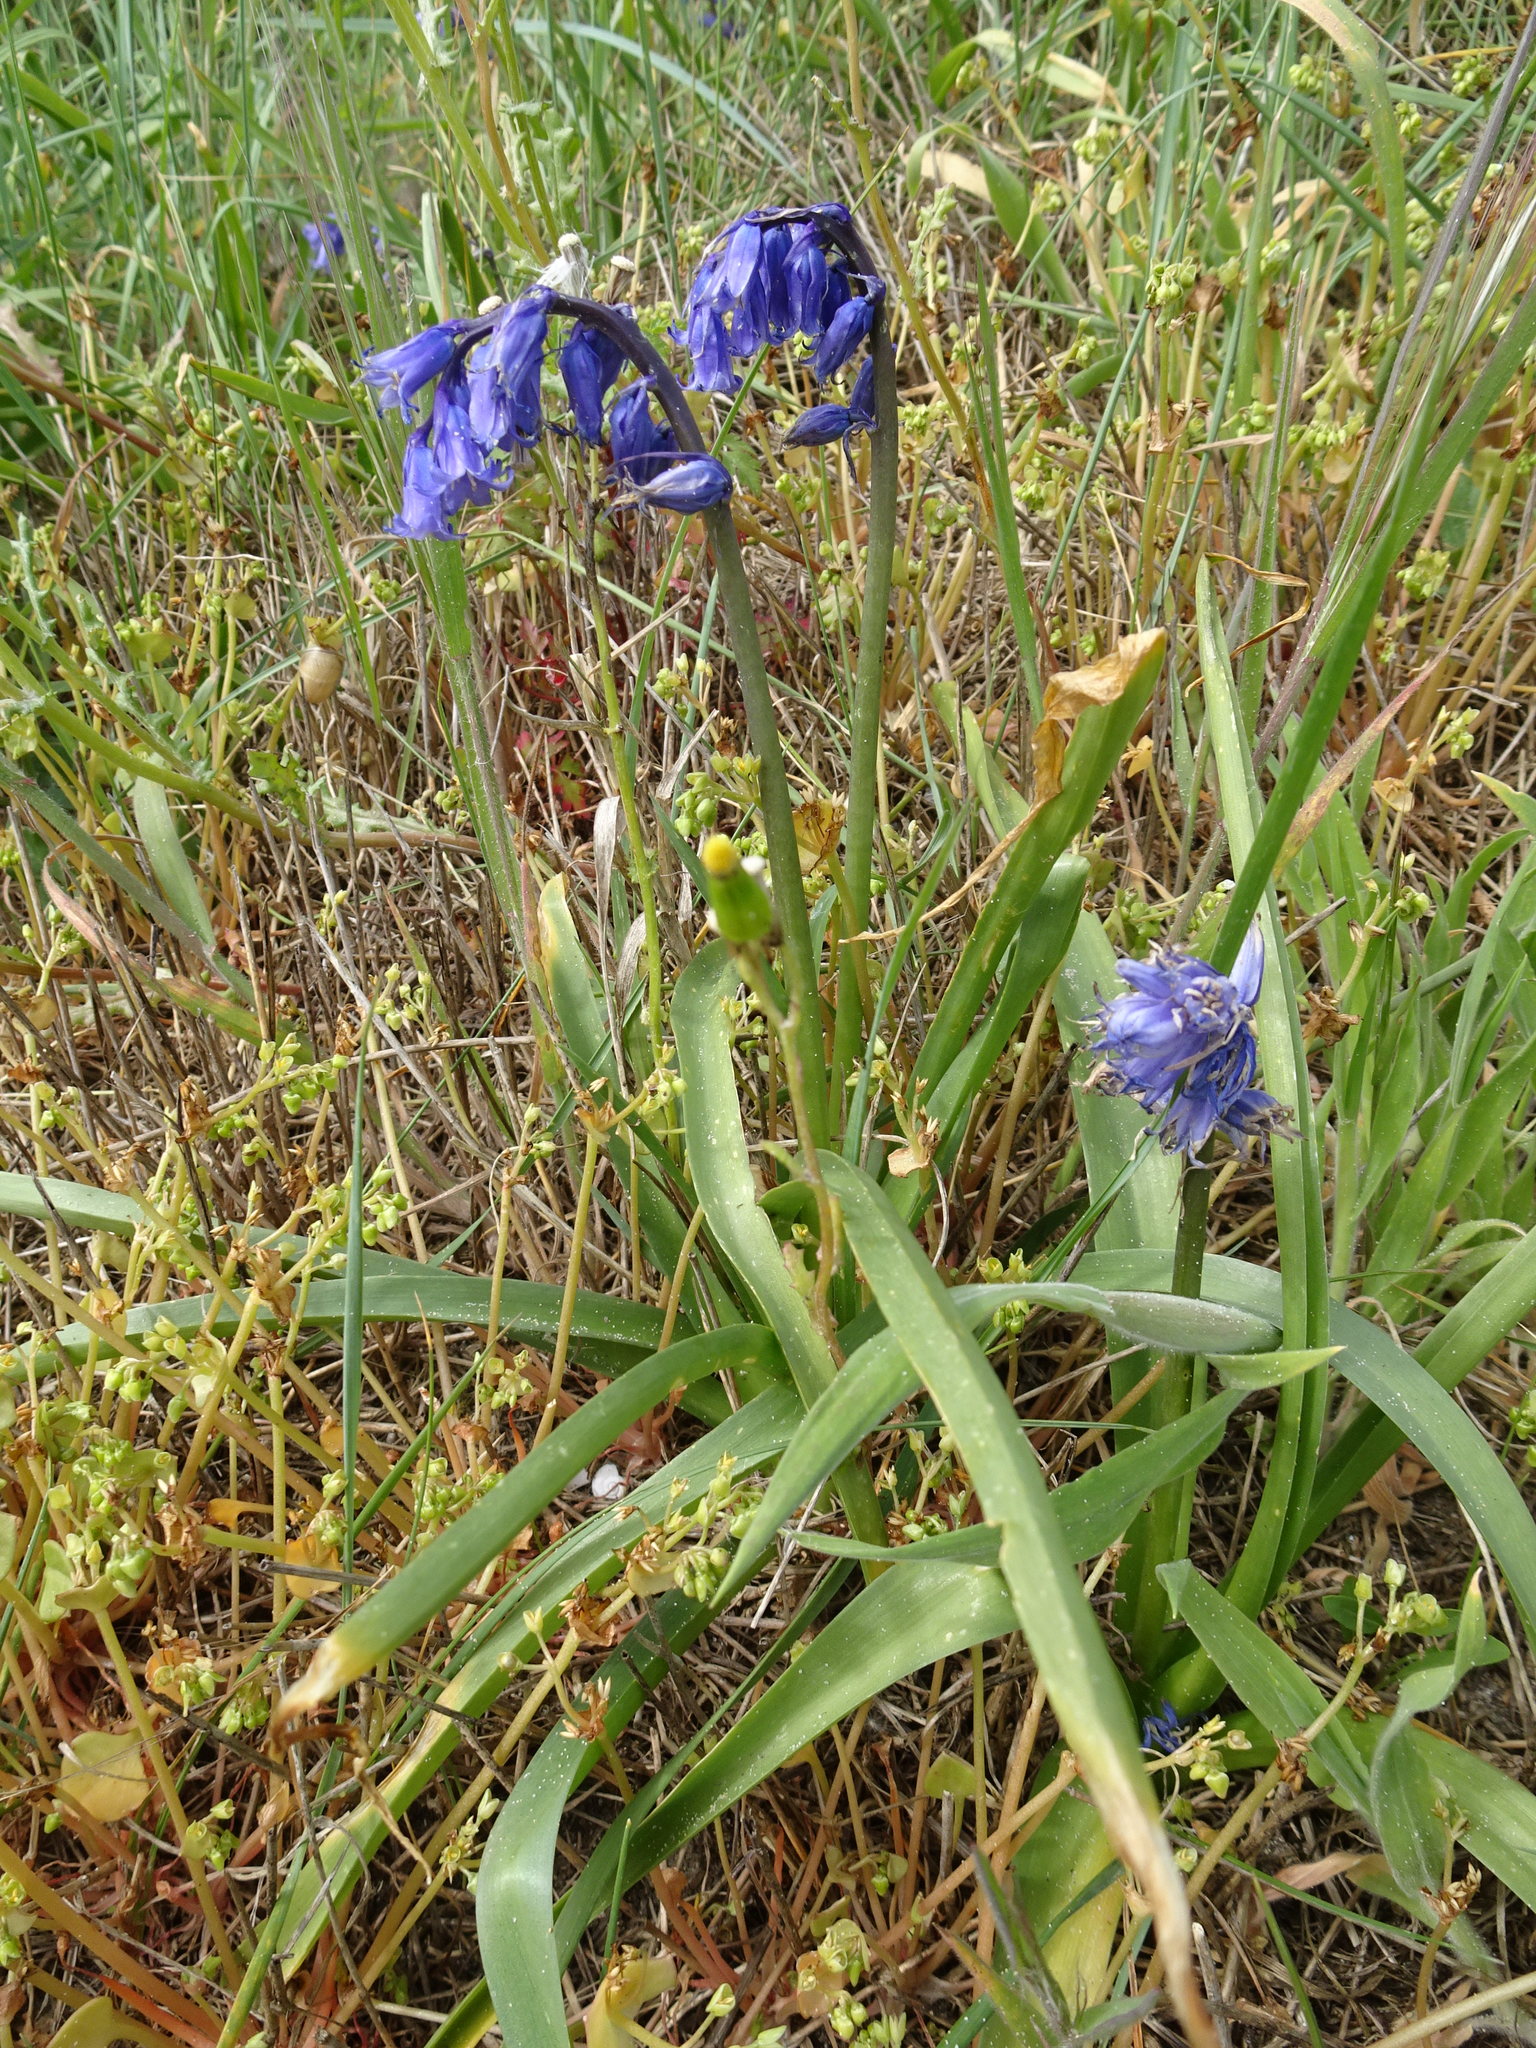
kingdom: Plantae
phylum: Tracheophyta
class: Liliopsida
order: Asparagales
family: Asparagaceae
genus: Hyacinthoides
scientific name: Hyacinthoides non-scripta
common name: Bluebell
